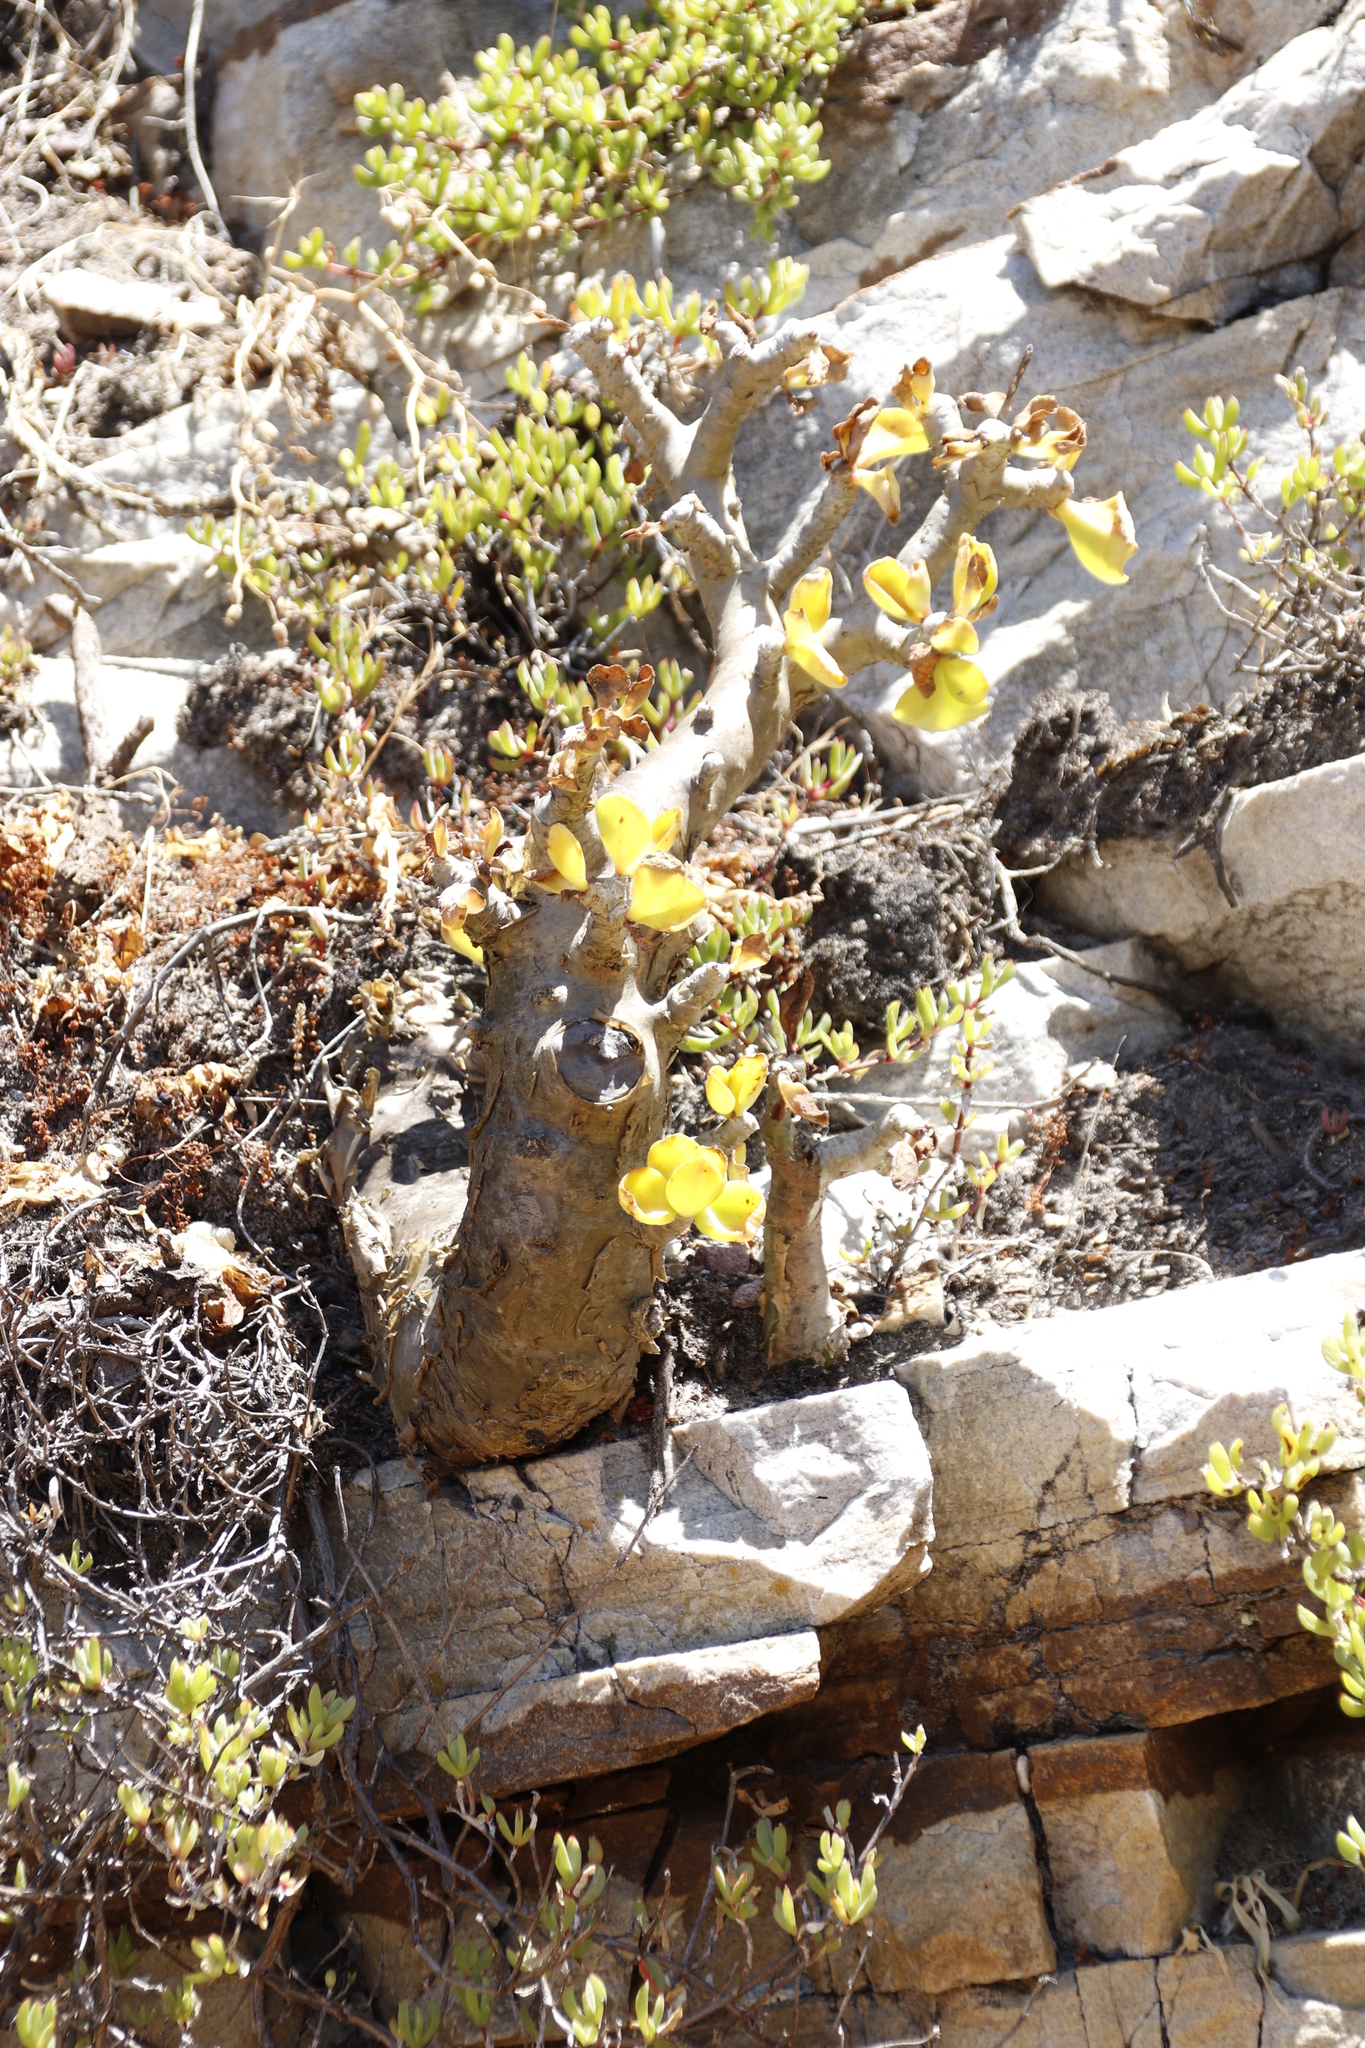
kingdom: Plantae
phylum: Tracheophyta
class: Magnoliopsida
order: Saxifragales
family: Crassulaceae
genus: Tylecodon
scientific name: Tylecodon paniculatus
